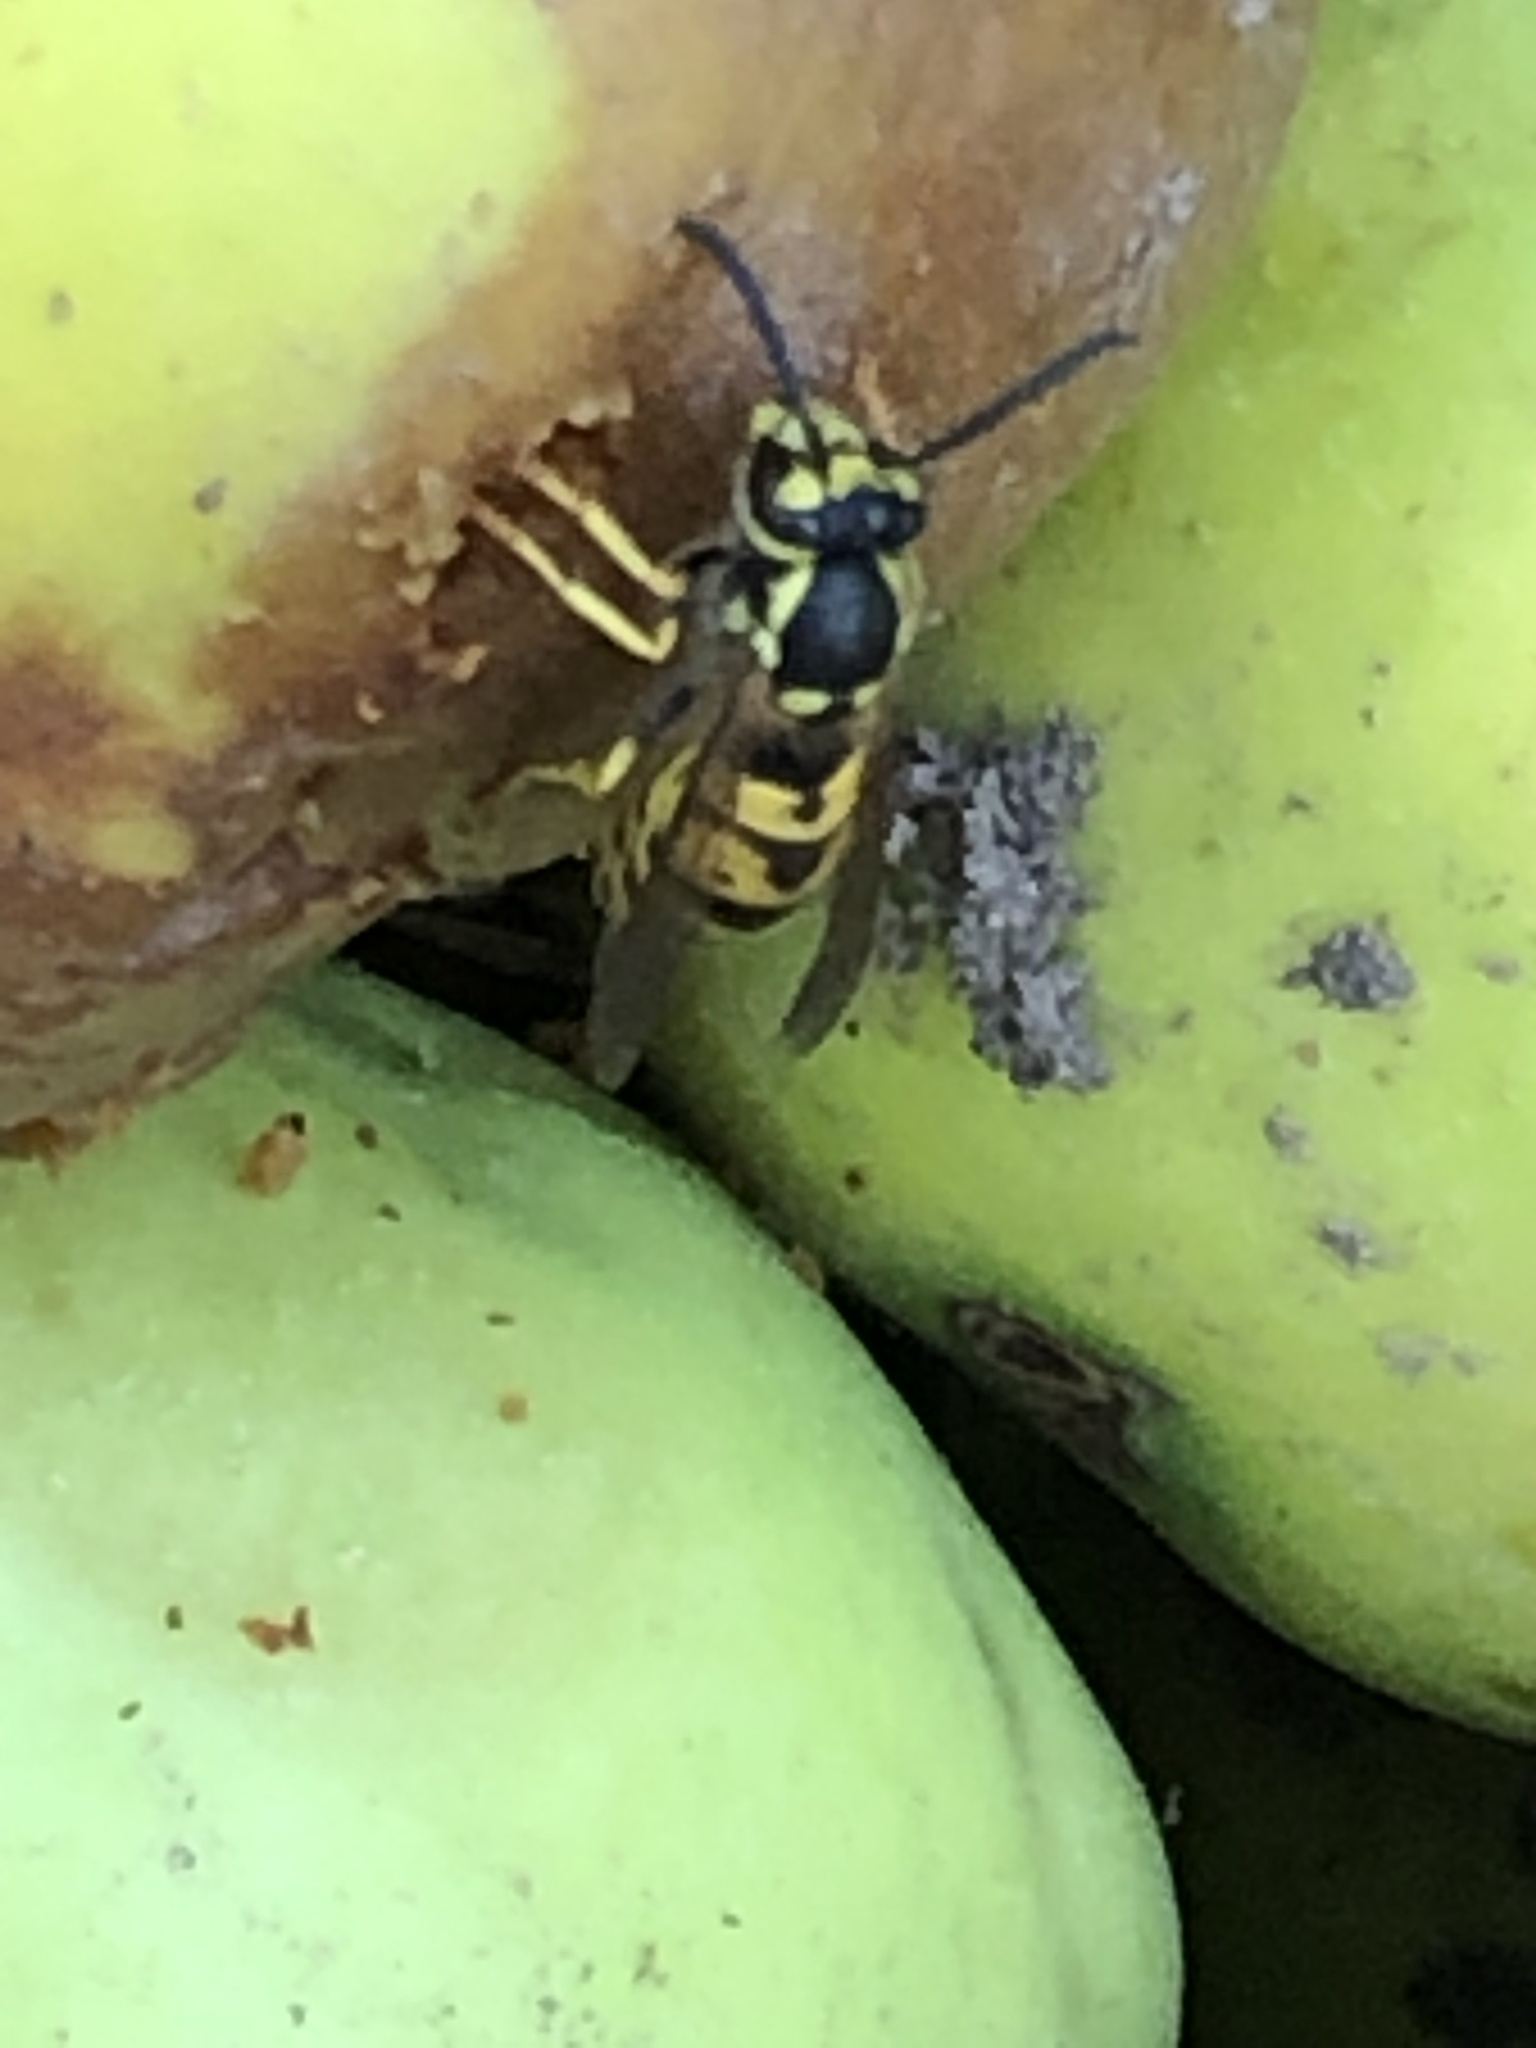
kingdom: Animalia
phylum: Arthropoda
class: Insecta
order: Hymenoptera
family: Vespidae
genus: Vespula
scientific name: Vespula germanica
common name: German wasp
